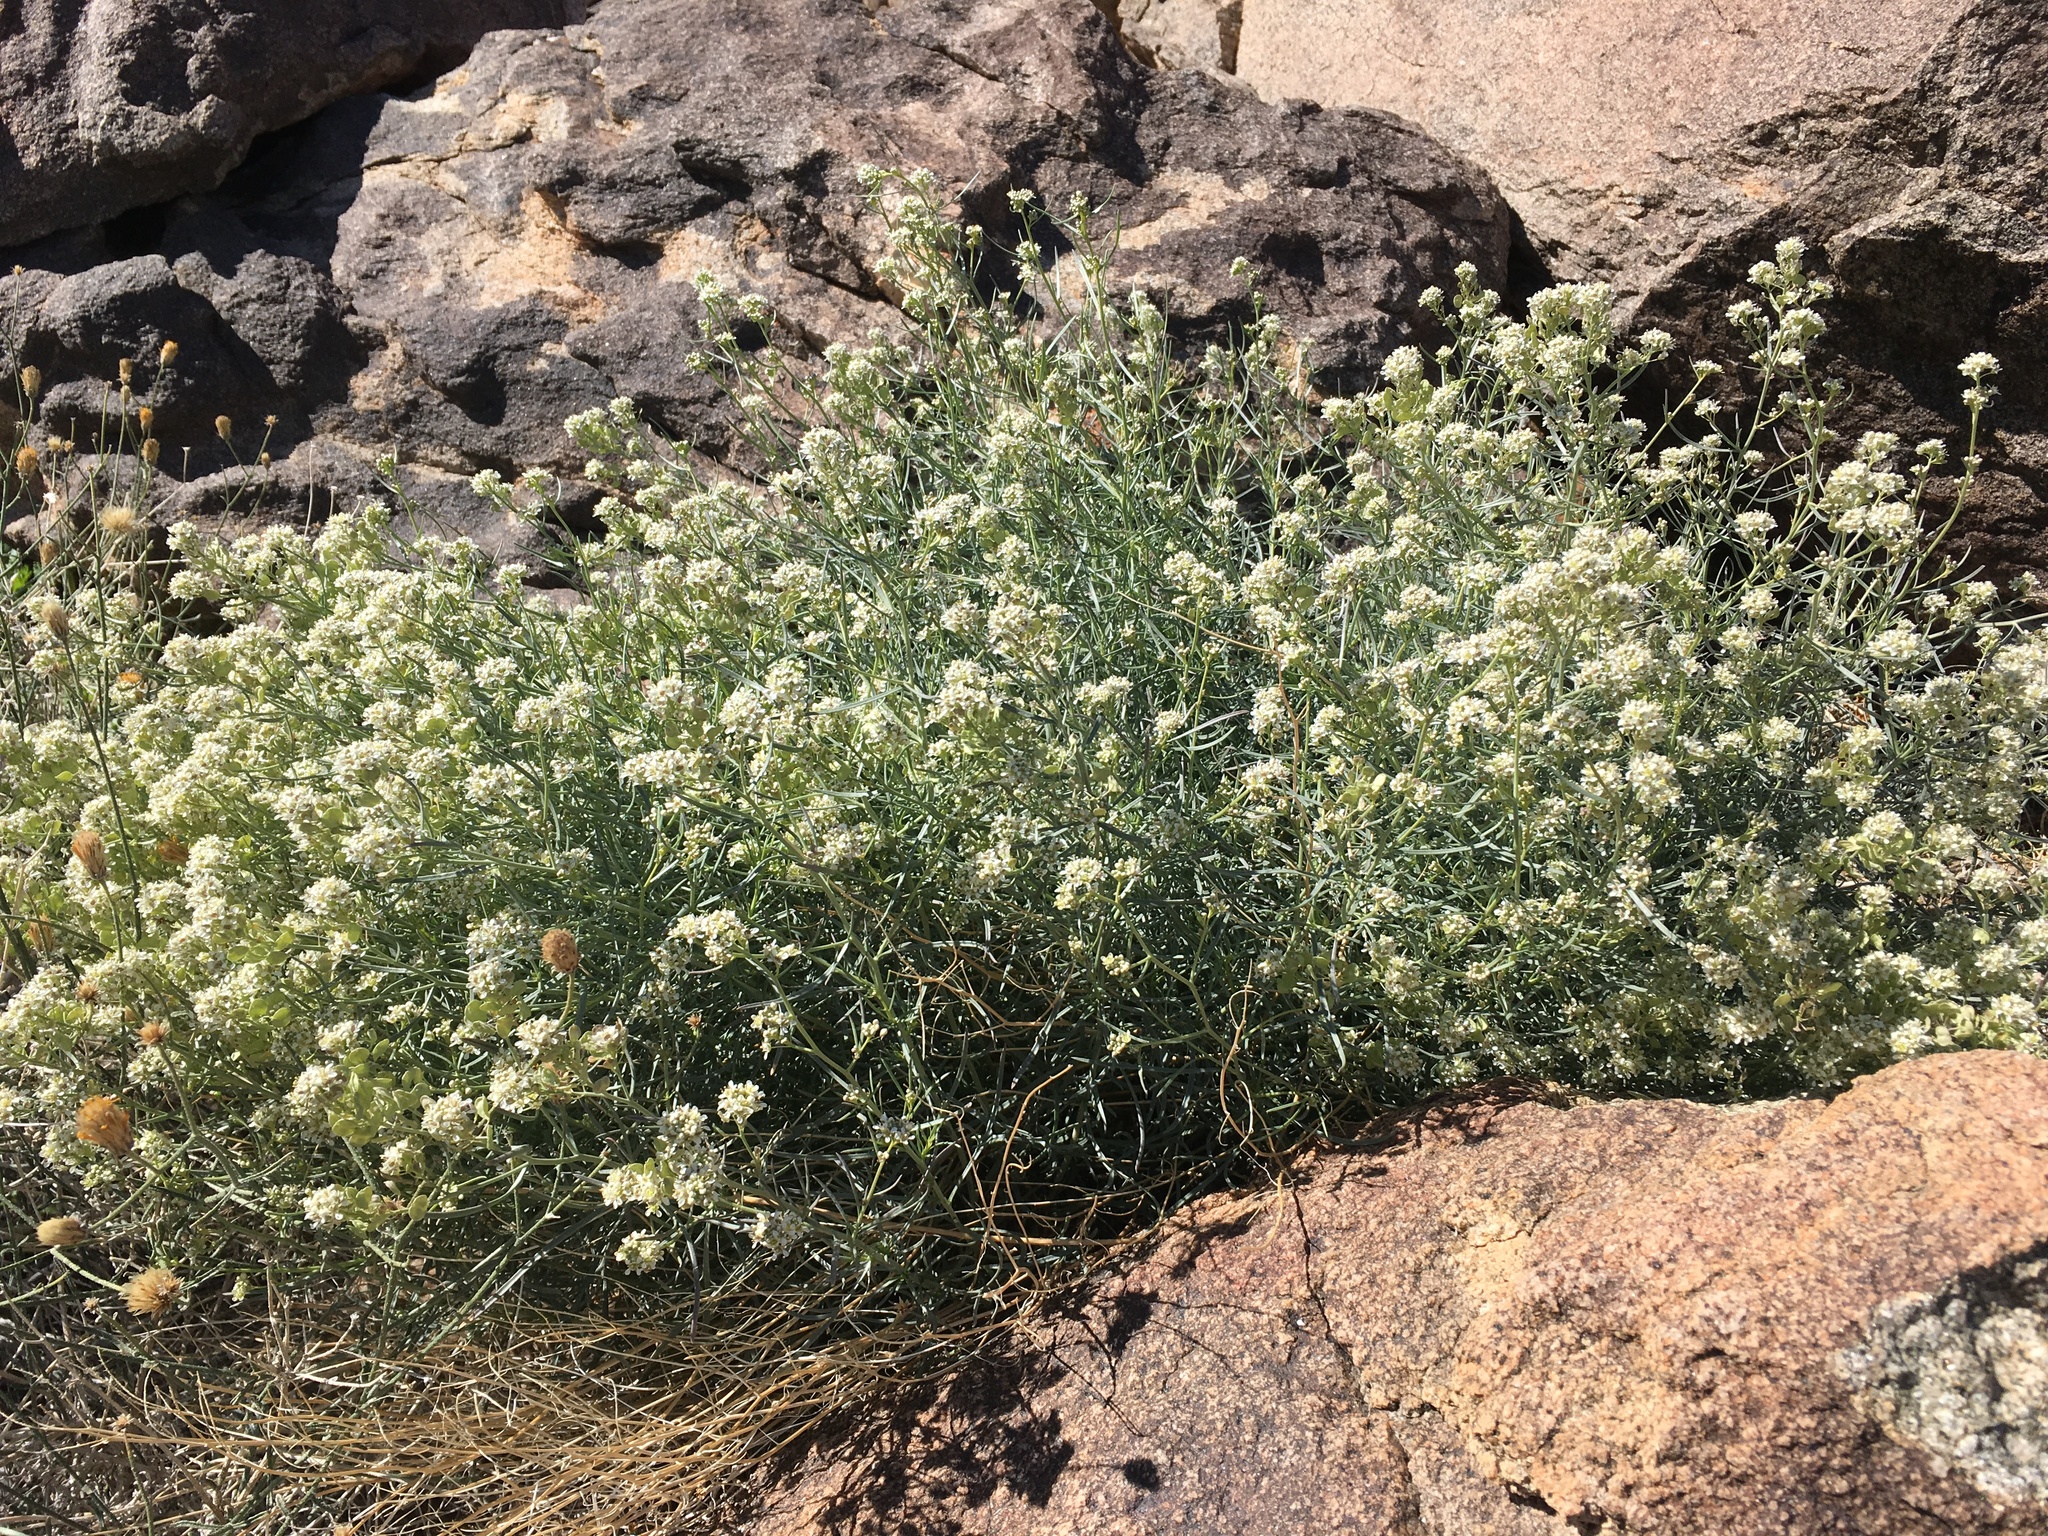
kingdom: Plantae
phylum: Tracheophyta
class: Magnoliopsida
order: Brassicales
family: Brassicaceae
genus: Lepidium
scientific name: Lepidium fremontii
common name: Fremont's pepperwort
